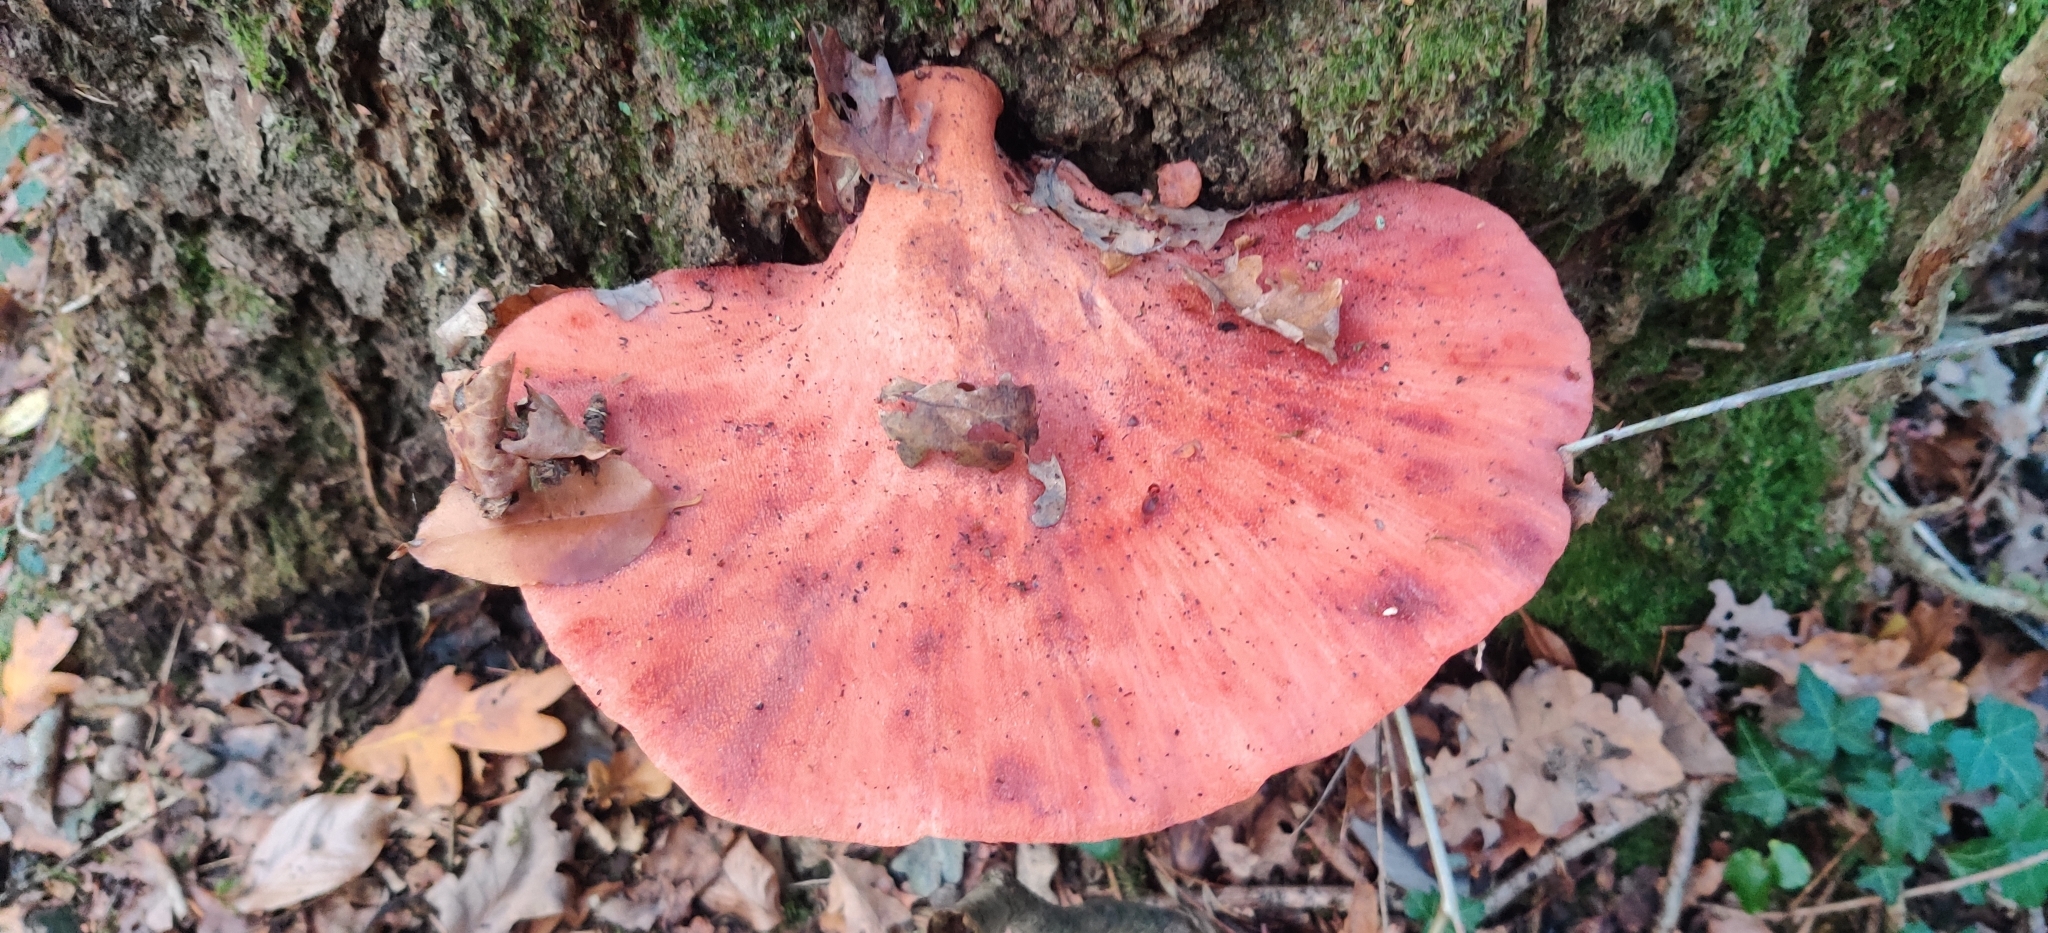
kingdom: Fungi
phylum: Basidiomycota
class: Agaricomycetes
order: Agaricales
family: Fistulinaceae
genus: Fistulina
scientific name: Fistulina hepatica
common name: Beef-steak fungus
